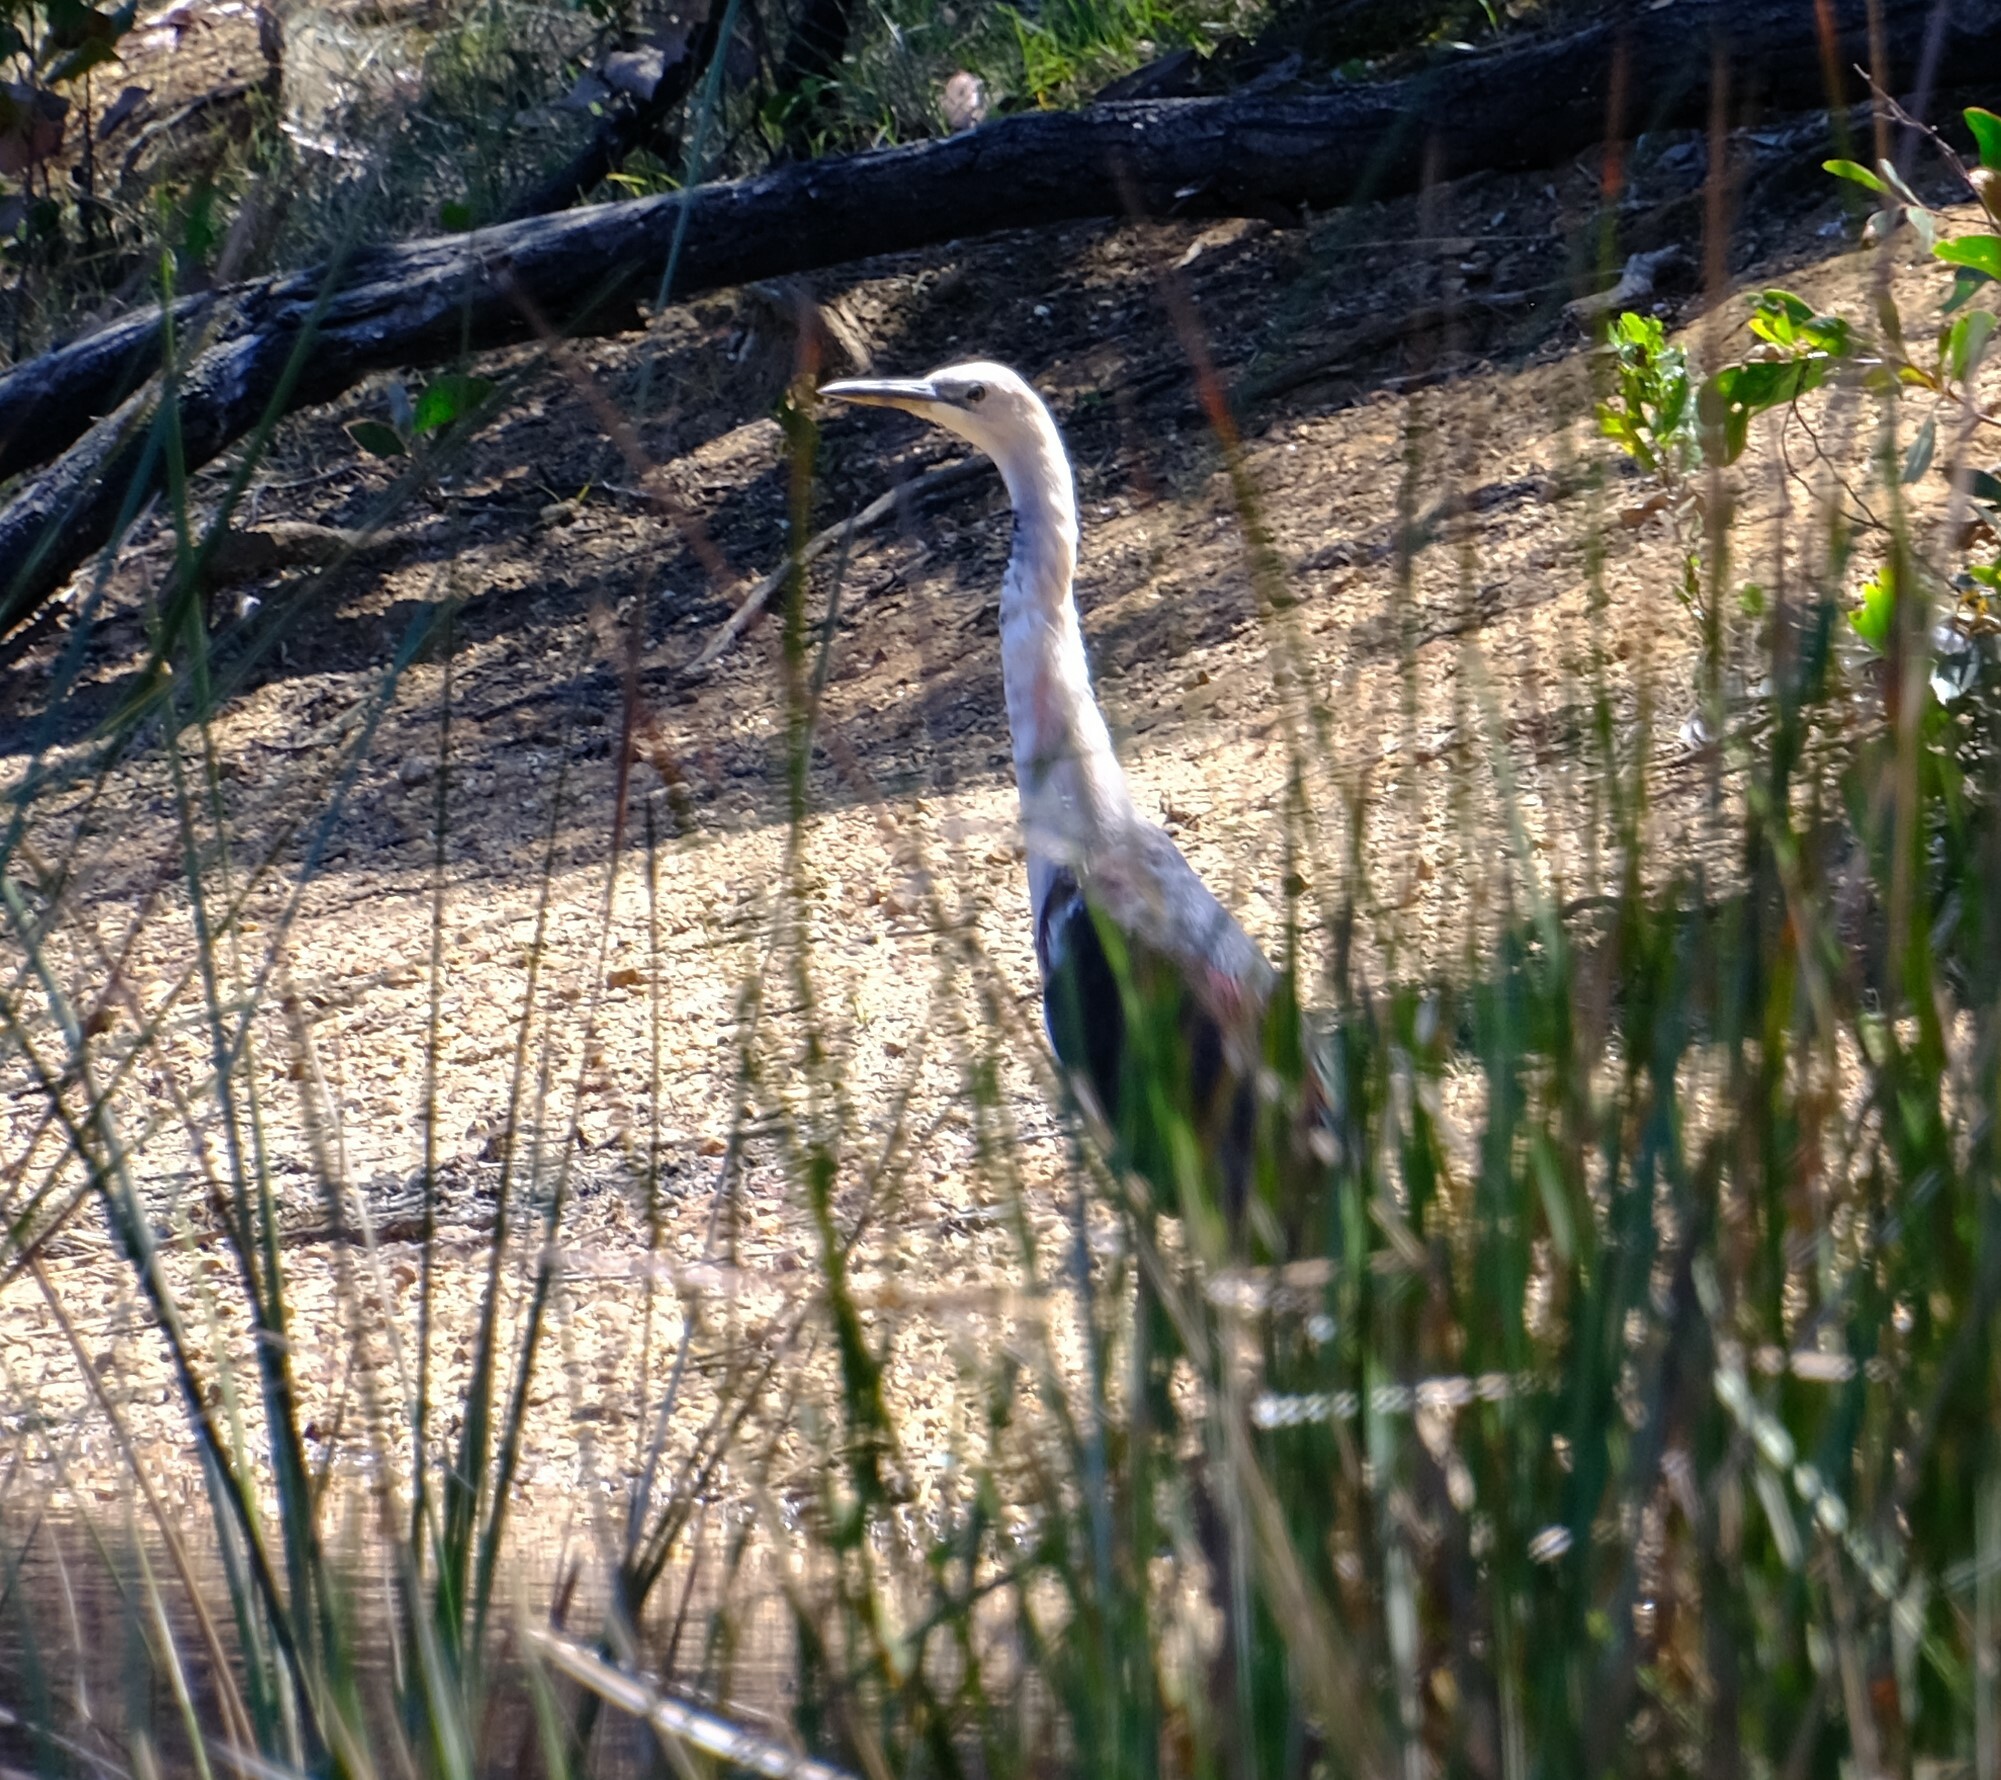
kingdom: Animalia
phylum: Chordata
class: Aves
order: Pelecaniformes
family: Ardeidae
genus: Ardea
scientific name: Ardea pacifica
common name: White-necked heron
